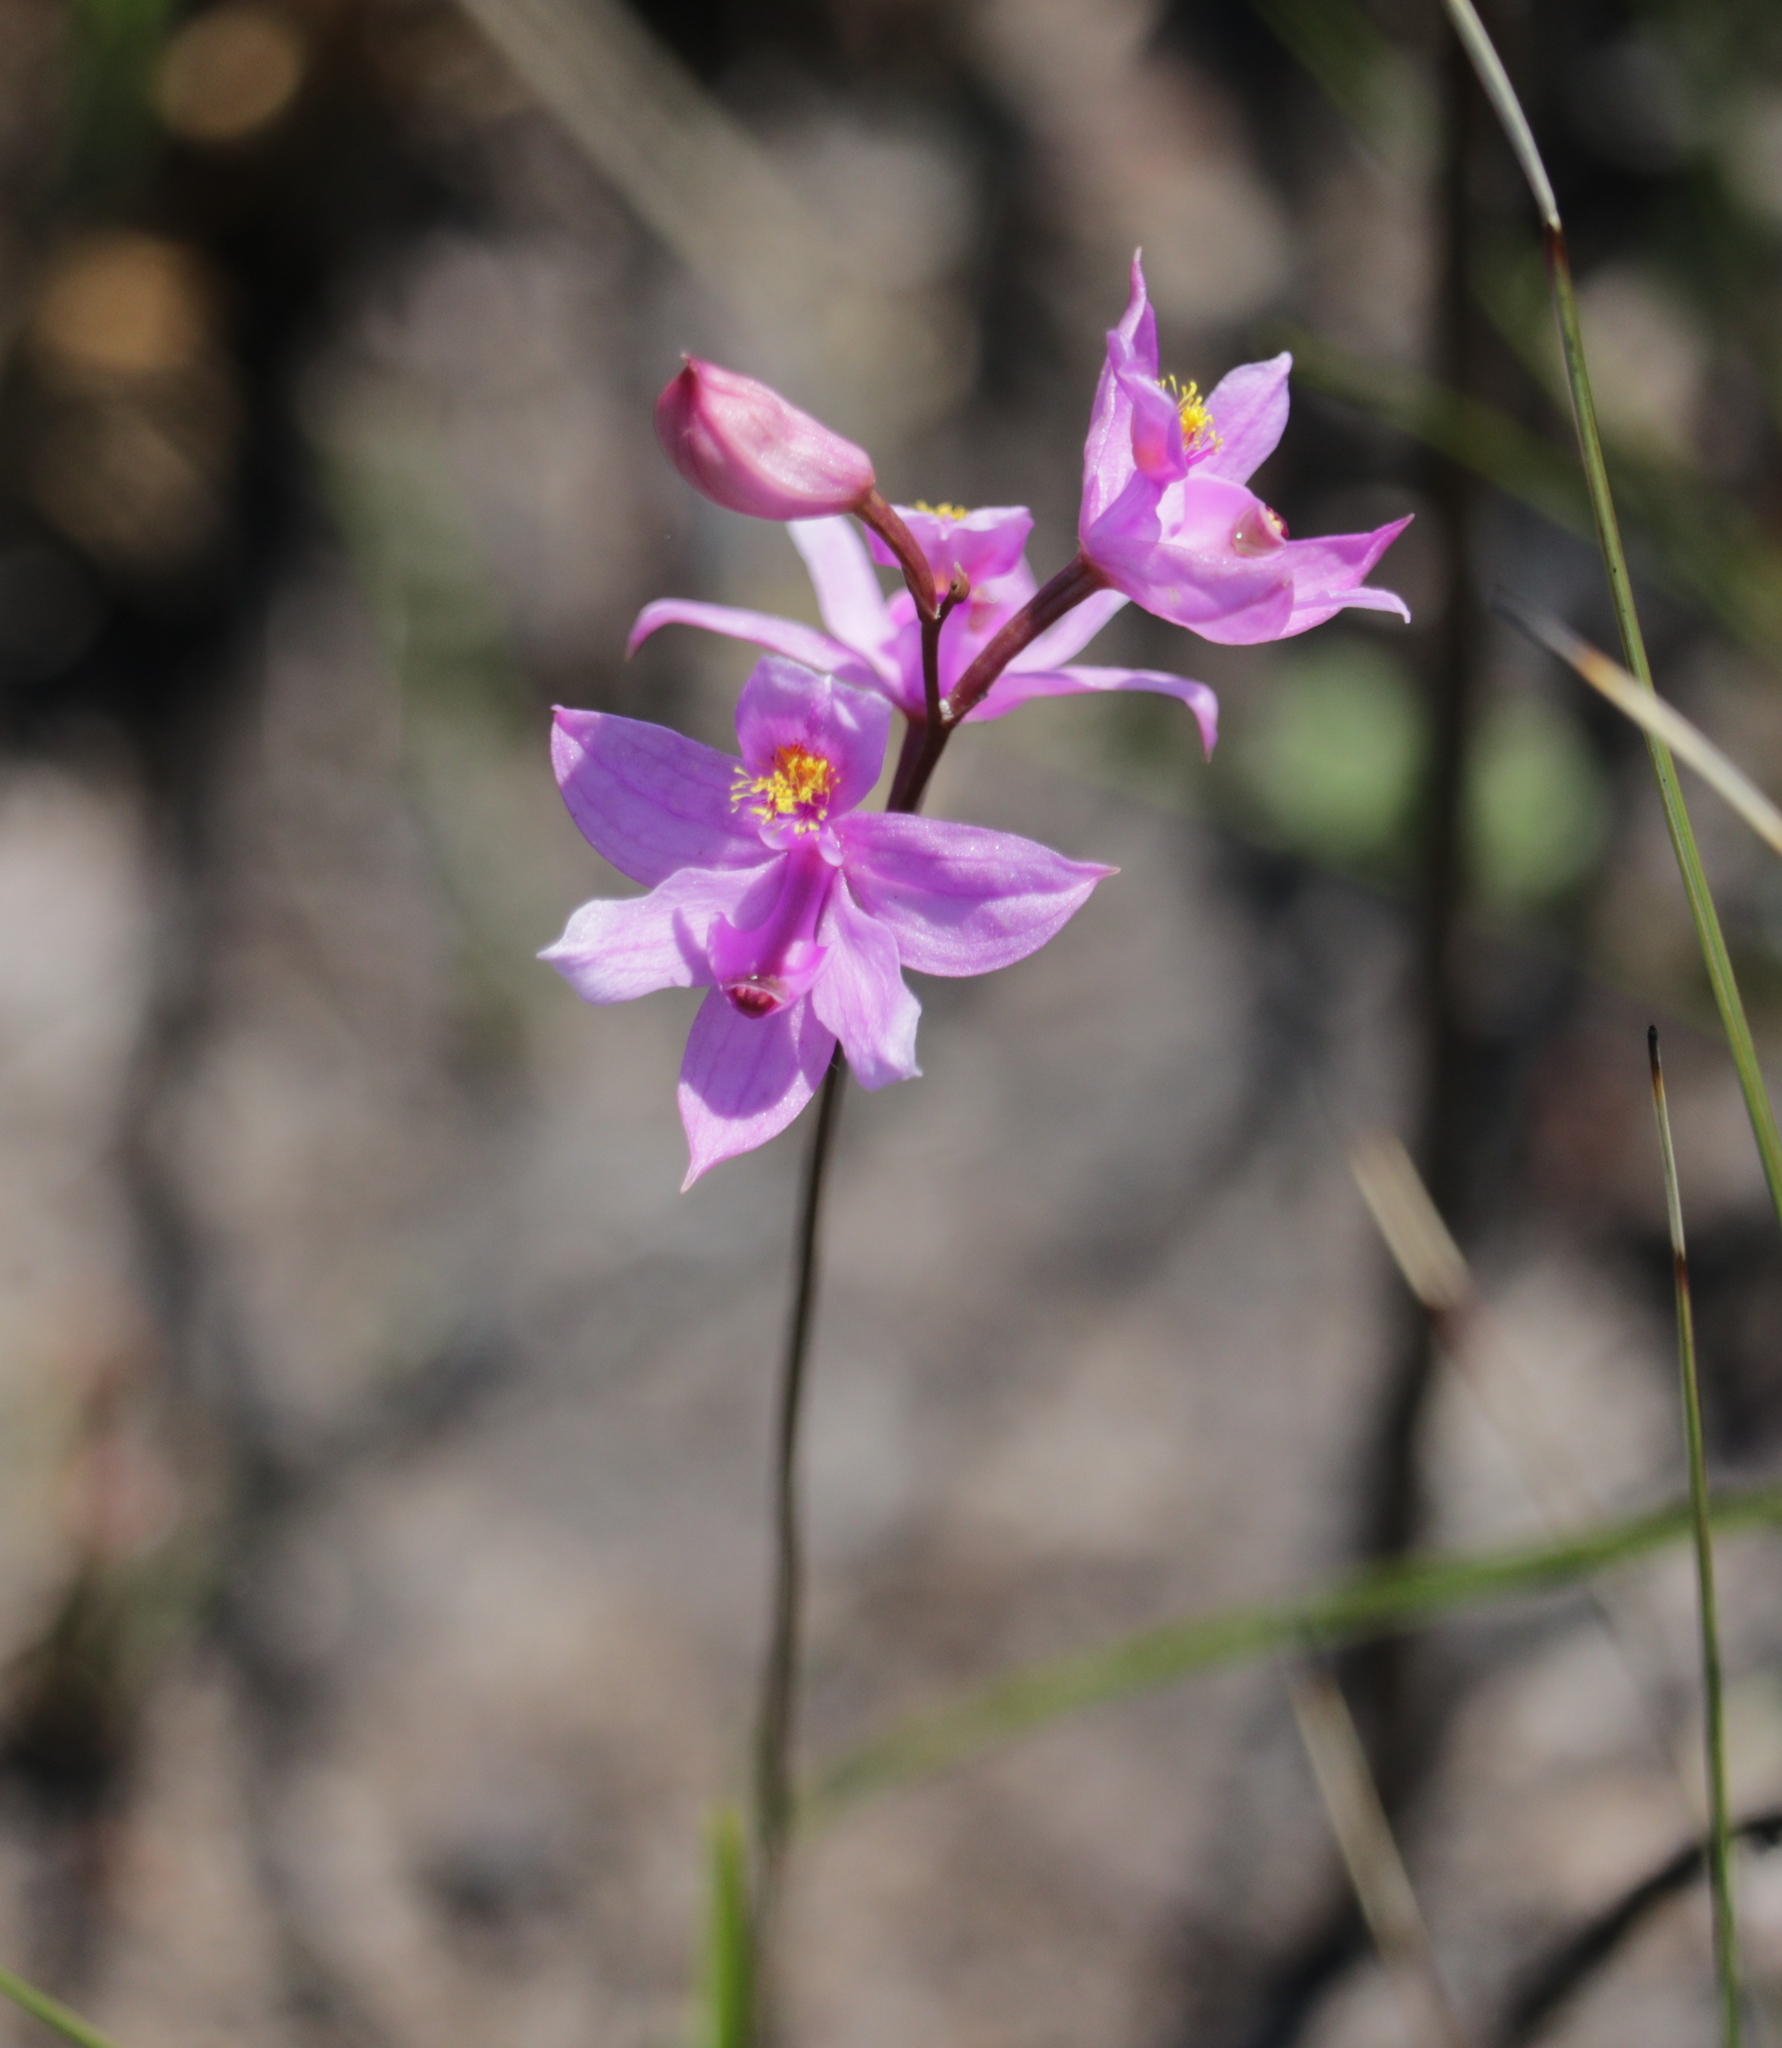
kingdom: Plantae
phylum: Tracheophyta
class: Liliopsida
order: Asparagales
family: Orchidaceae
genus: Calopogon
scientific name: Calopogon barbatus
